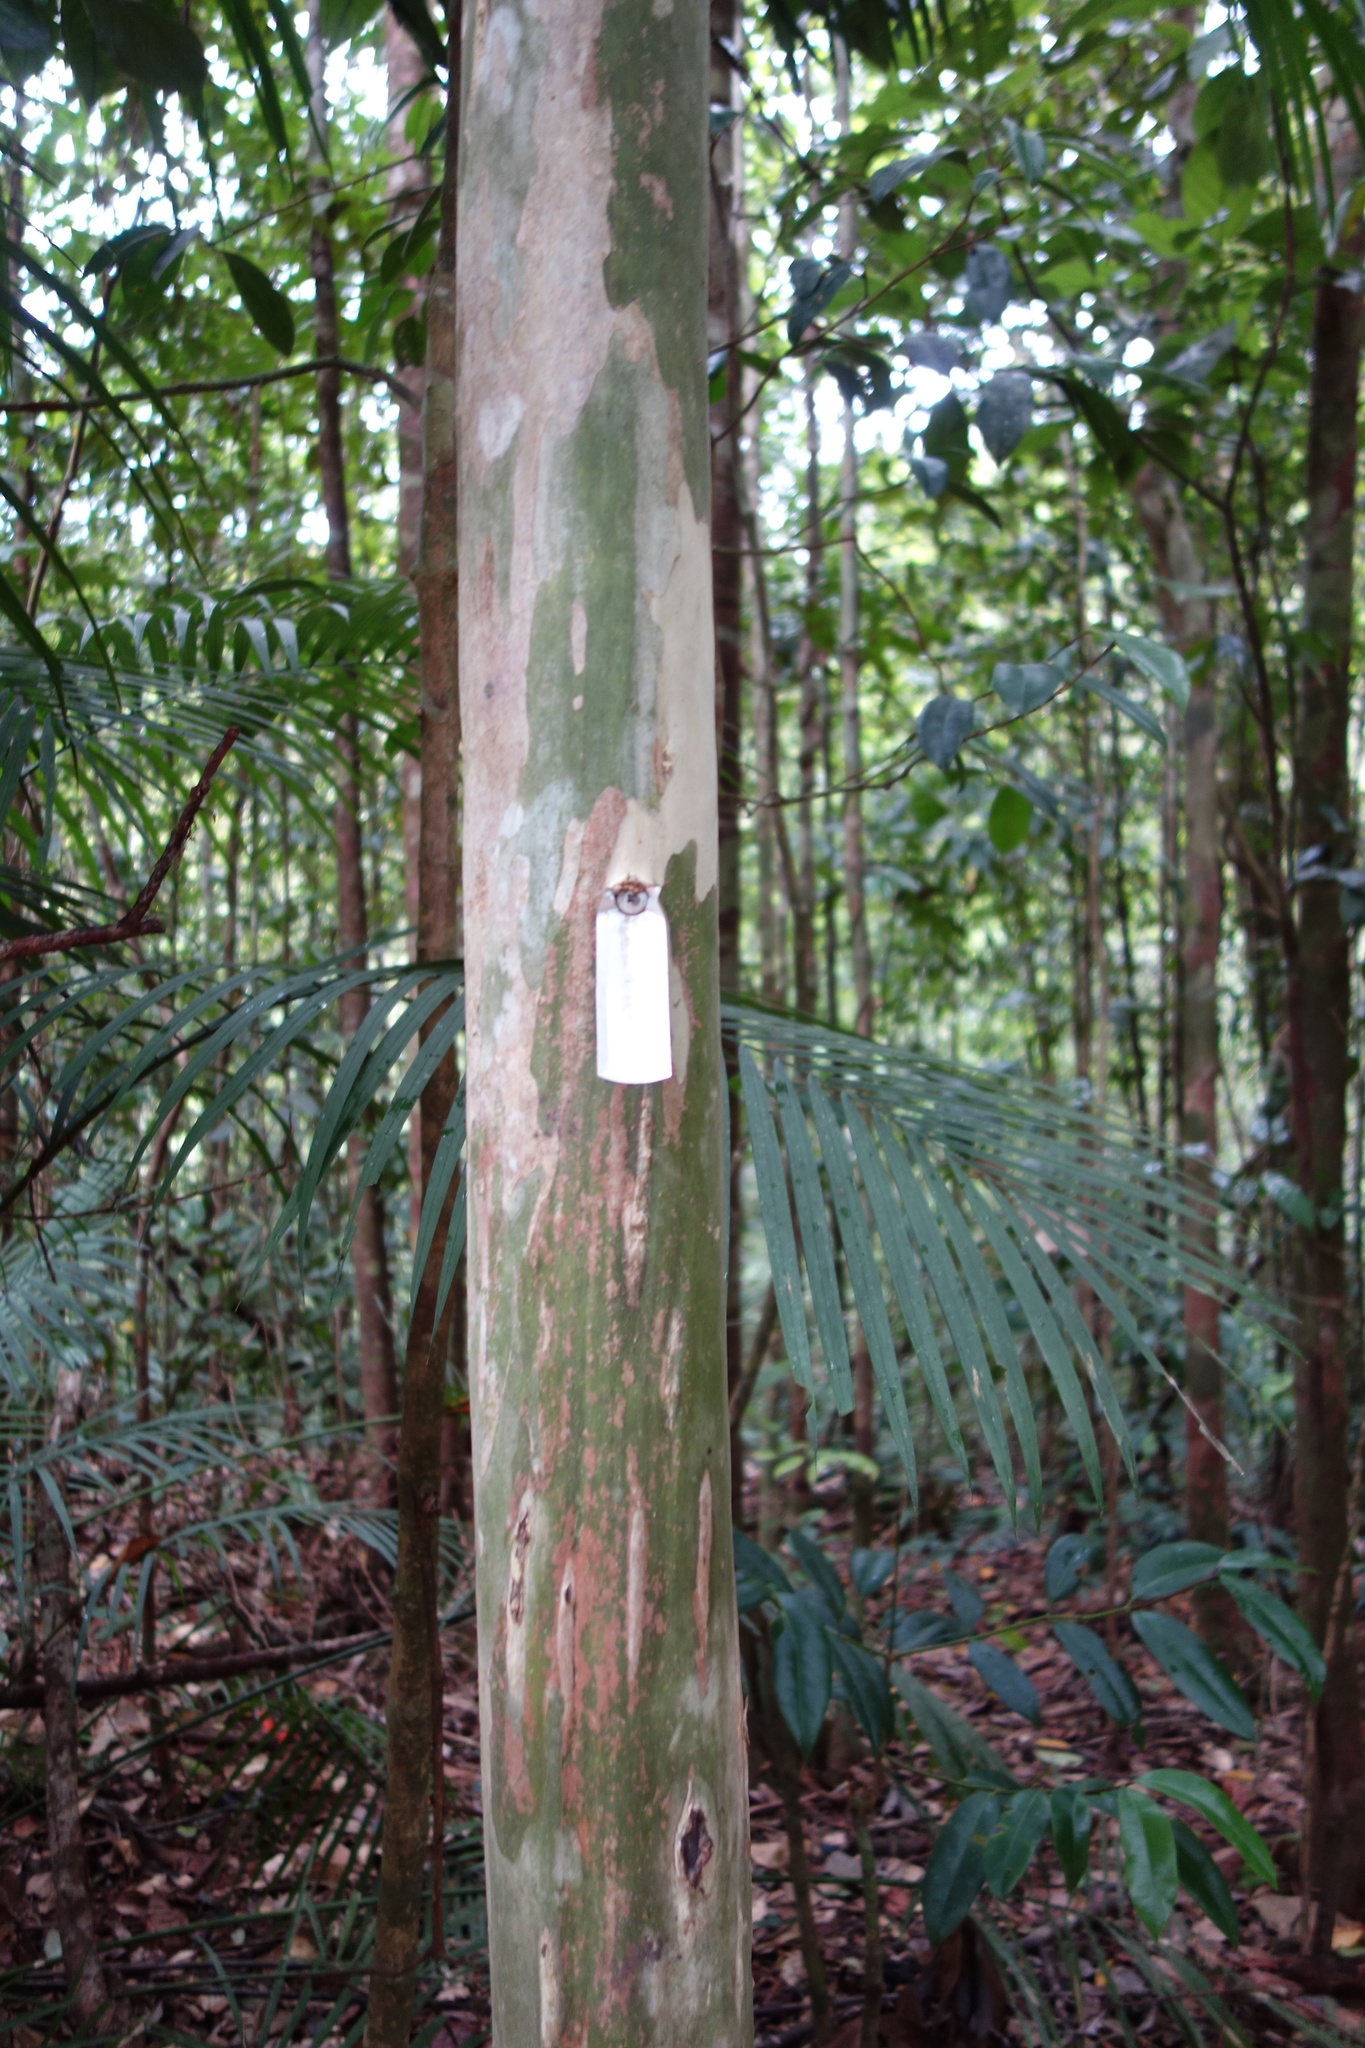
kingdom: Plantae
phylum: Tracheophyta
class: Magnoliopsida
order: Myrtales
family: Myrtaceae
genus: Gossia
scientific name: Gossia bidwillii
